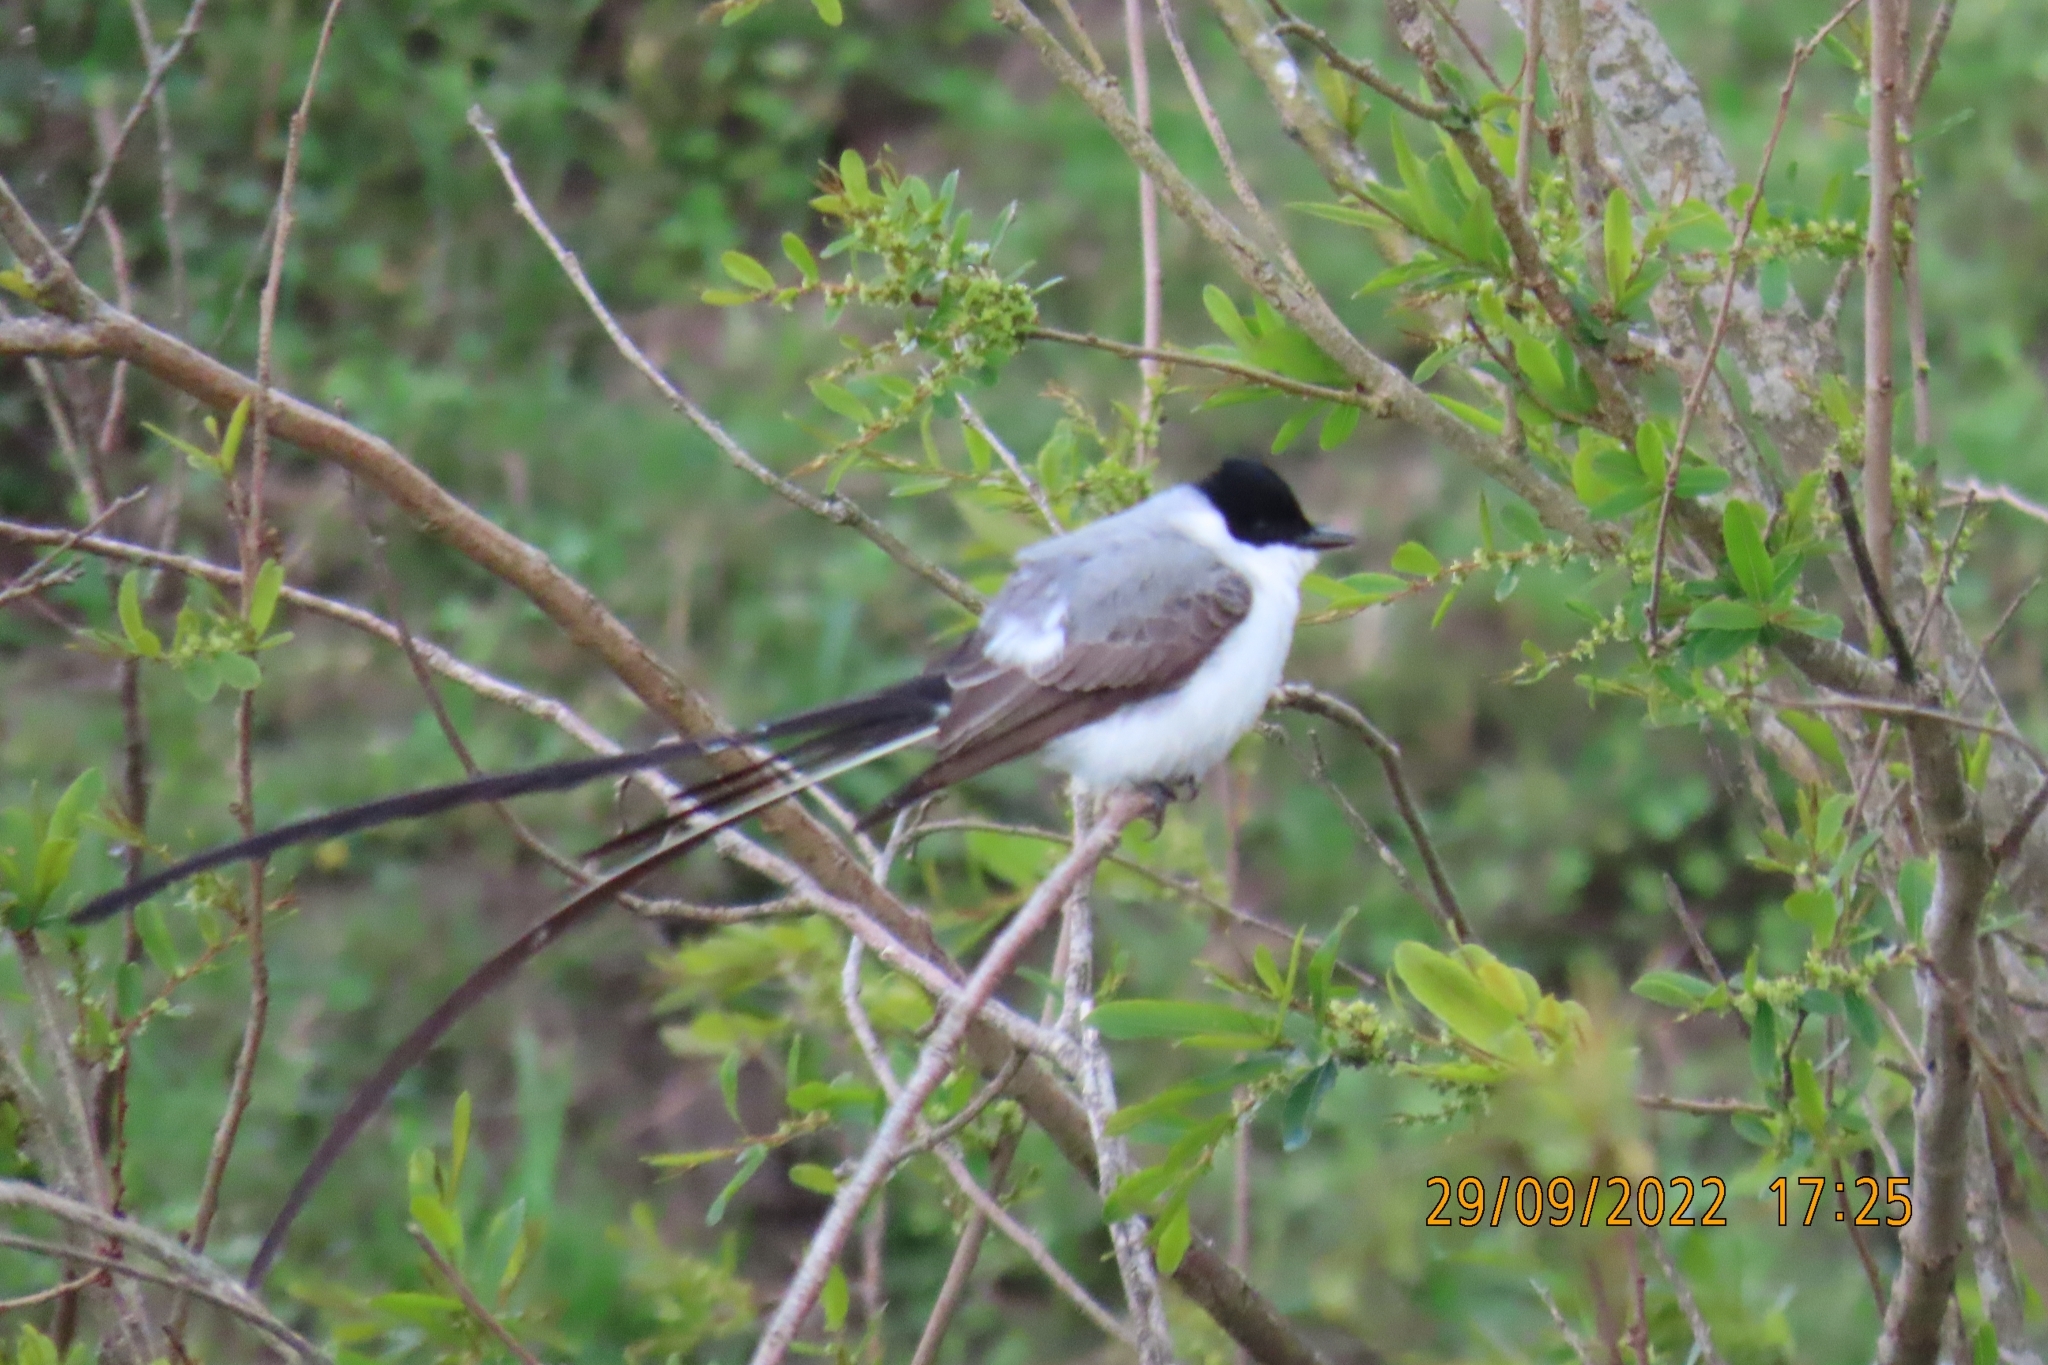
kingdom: Animalia
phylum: Chordata
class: Aves
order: Passeriformes
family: Tyrannidae
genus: Tyrannus
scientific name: Tyrannus savana
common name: Fork-tailed flycatcher
